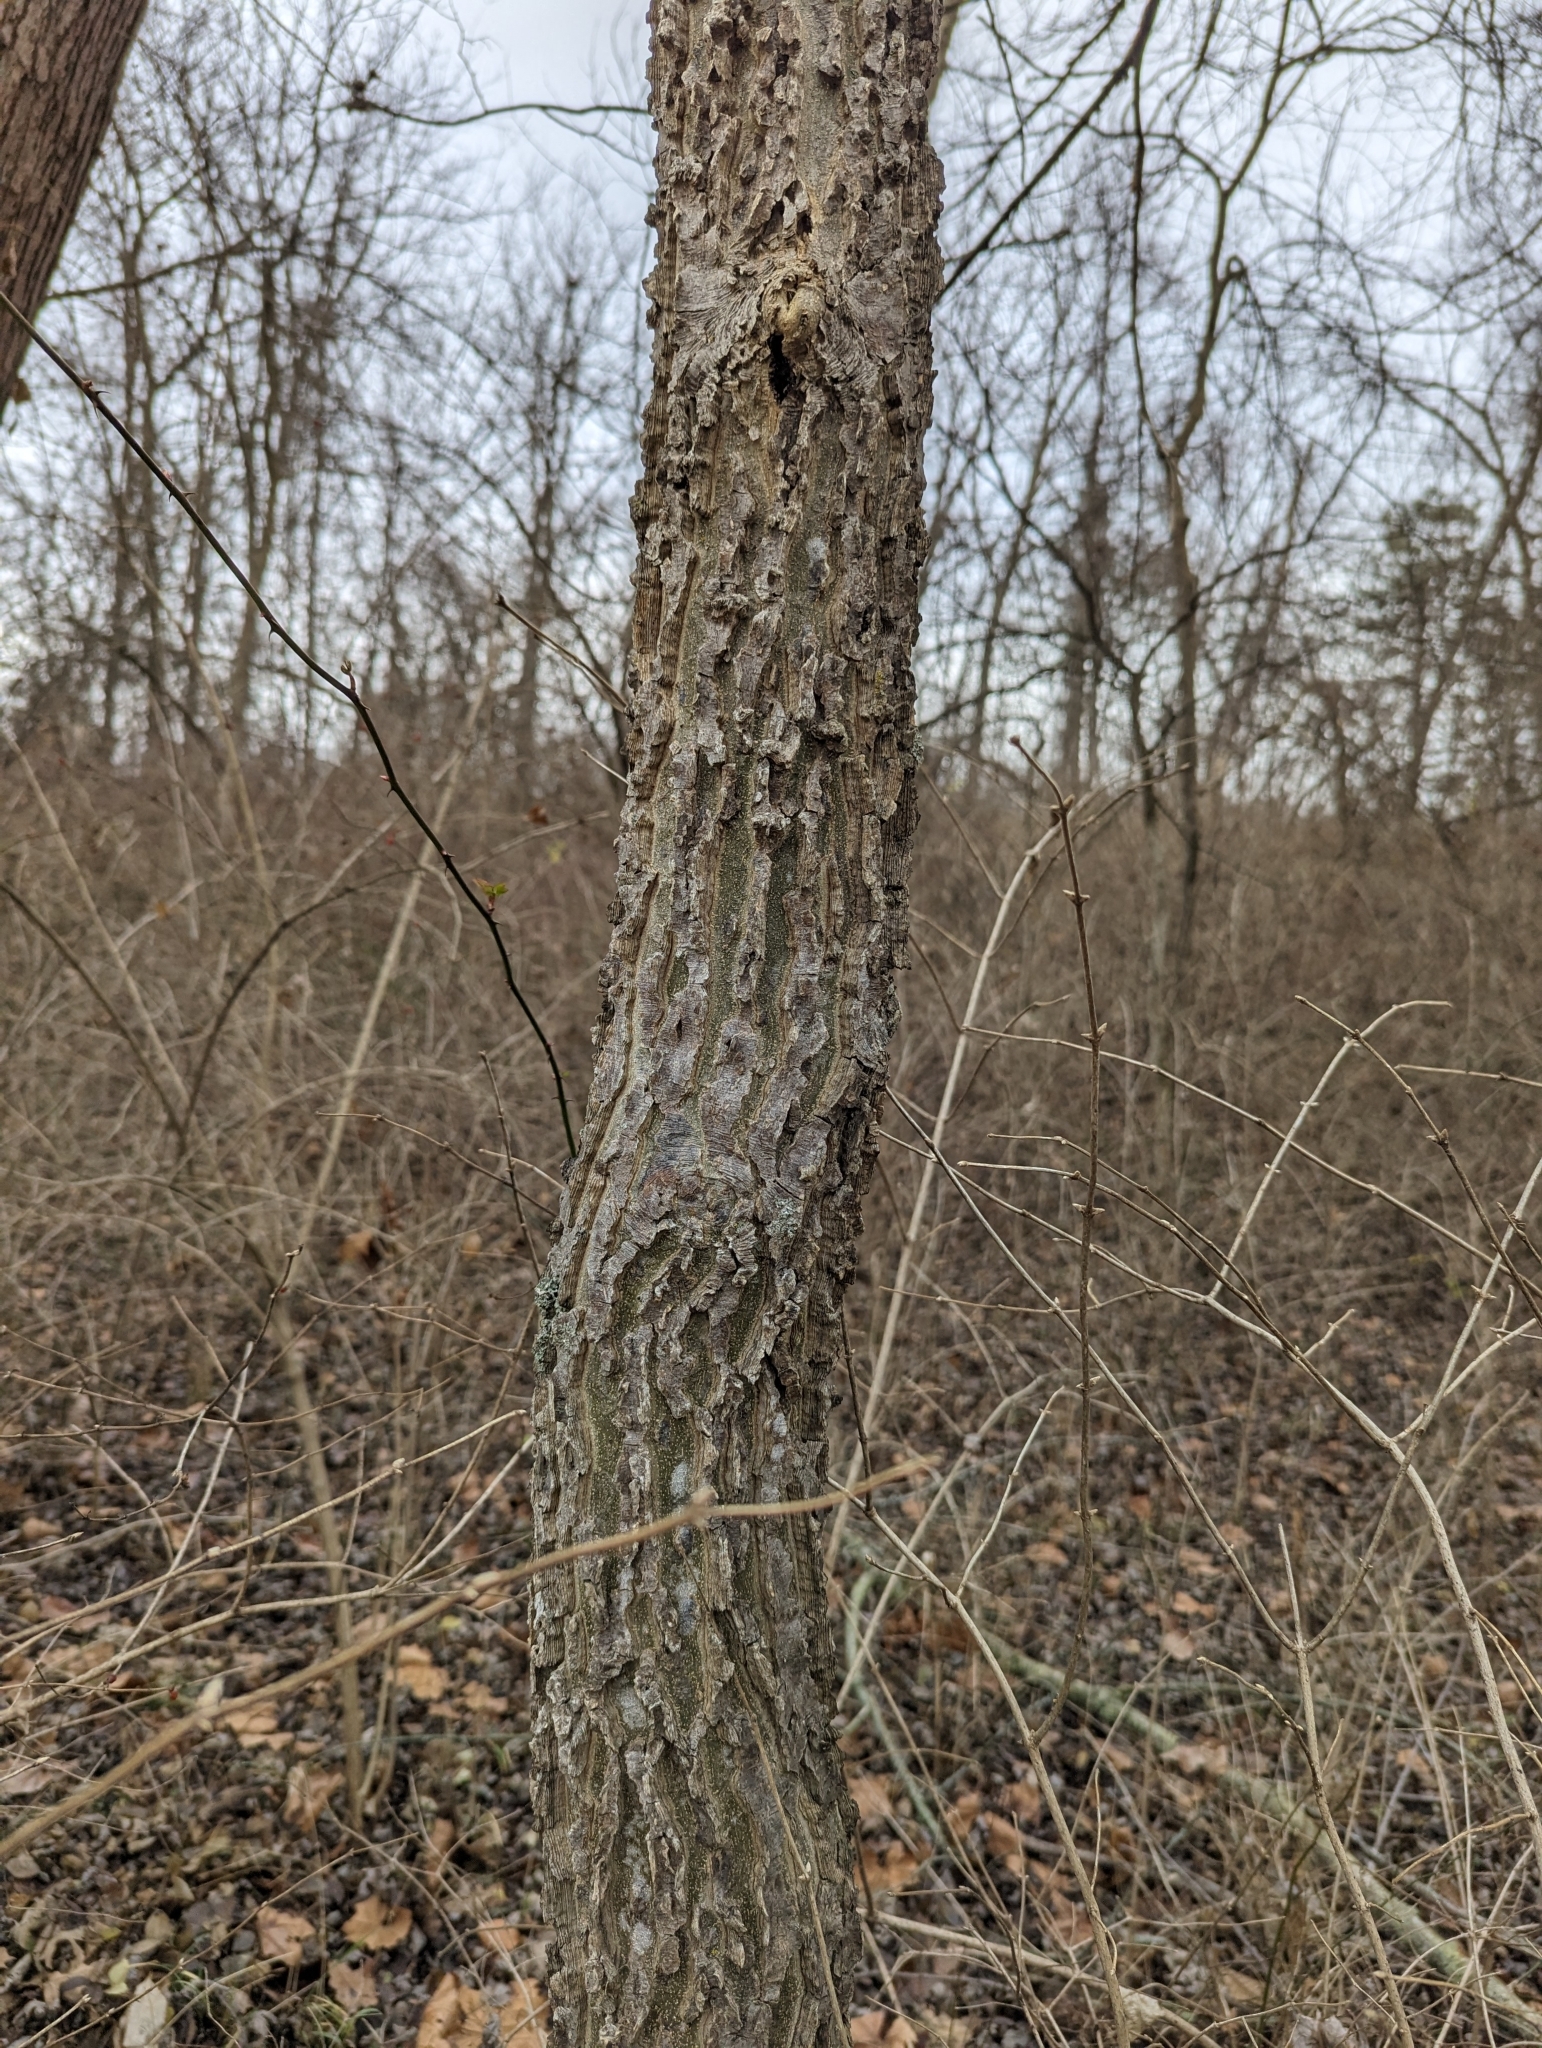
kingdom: Plantae
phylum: Tracheophyta
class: Magnoliopsida
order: Rosales
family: Cannabaceae
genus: Celtis
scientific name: Celtis occidentalis
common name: Common hackberry
